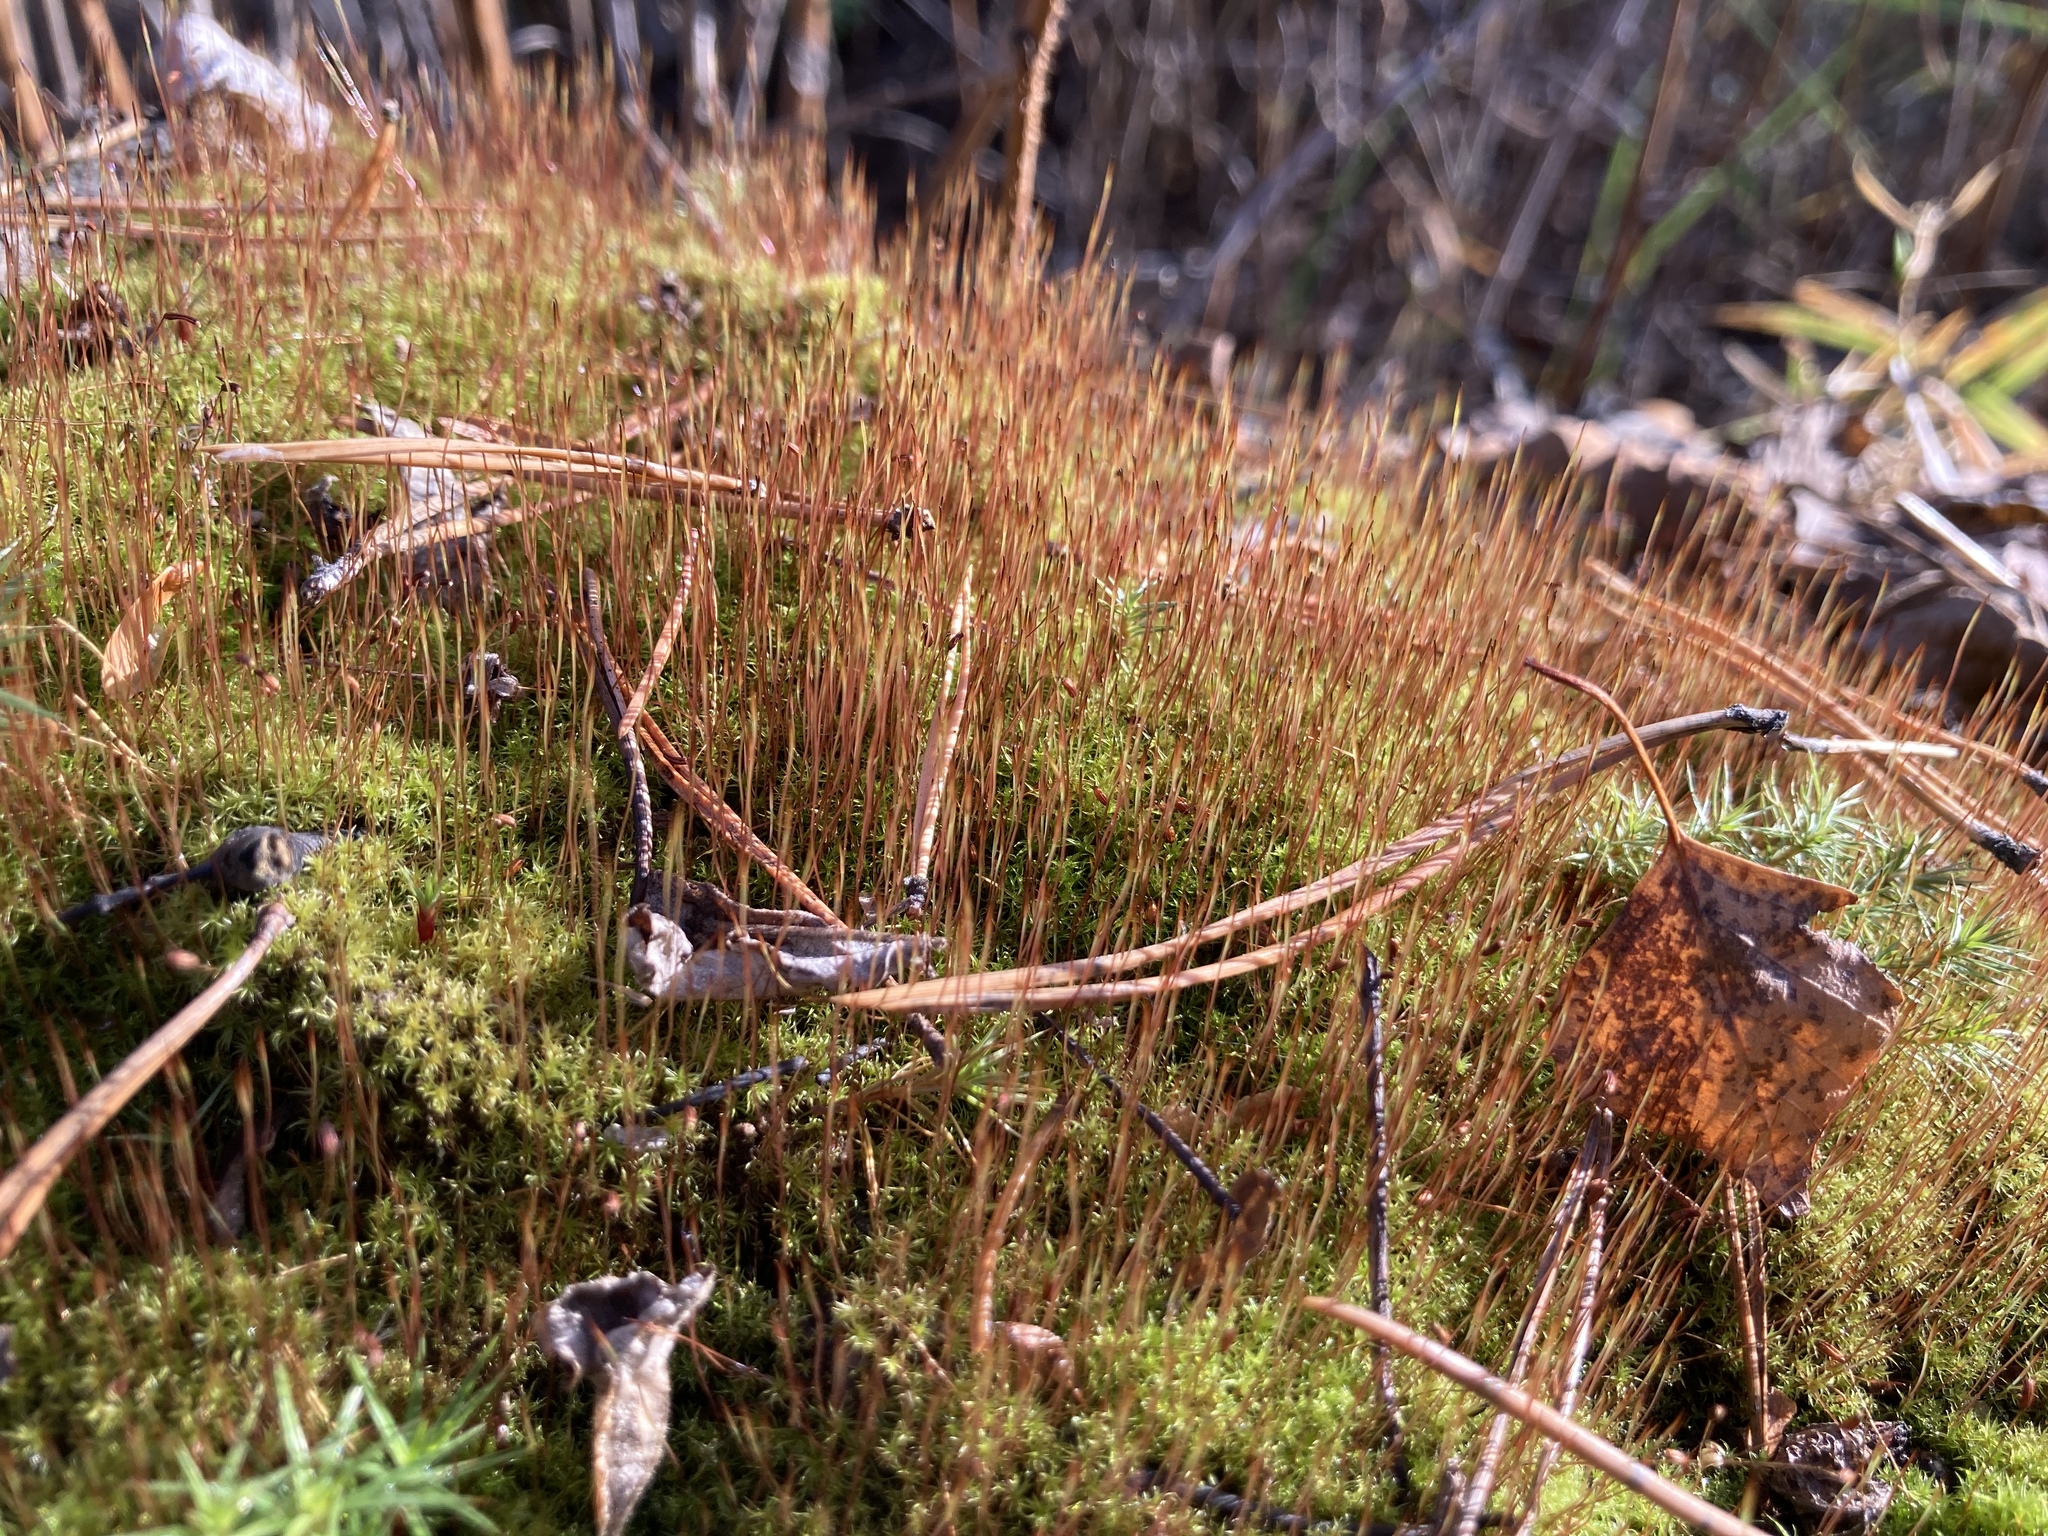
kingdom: Plantae
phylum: Bryophyta
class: Bryopsida
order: Dicranales
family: Ditrichaceae
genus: Ceratodon
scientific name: Ceratodon purpureus
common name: Redshank
